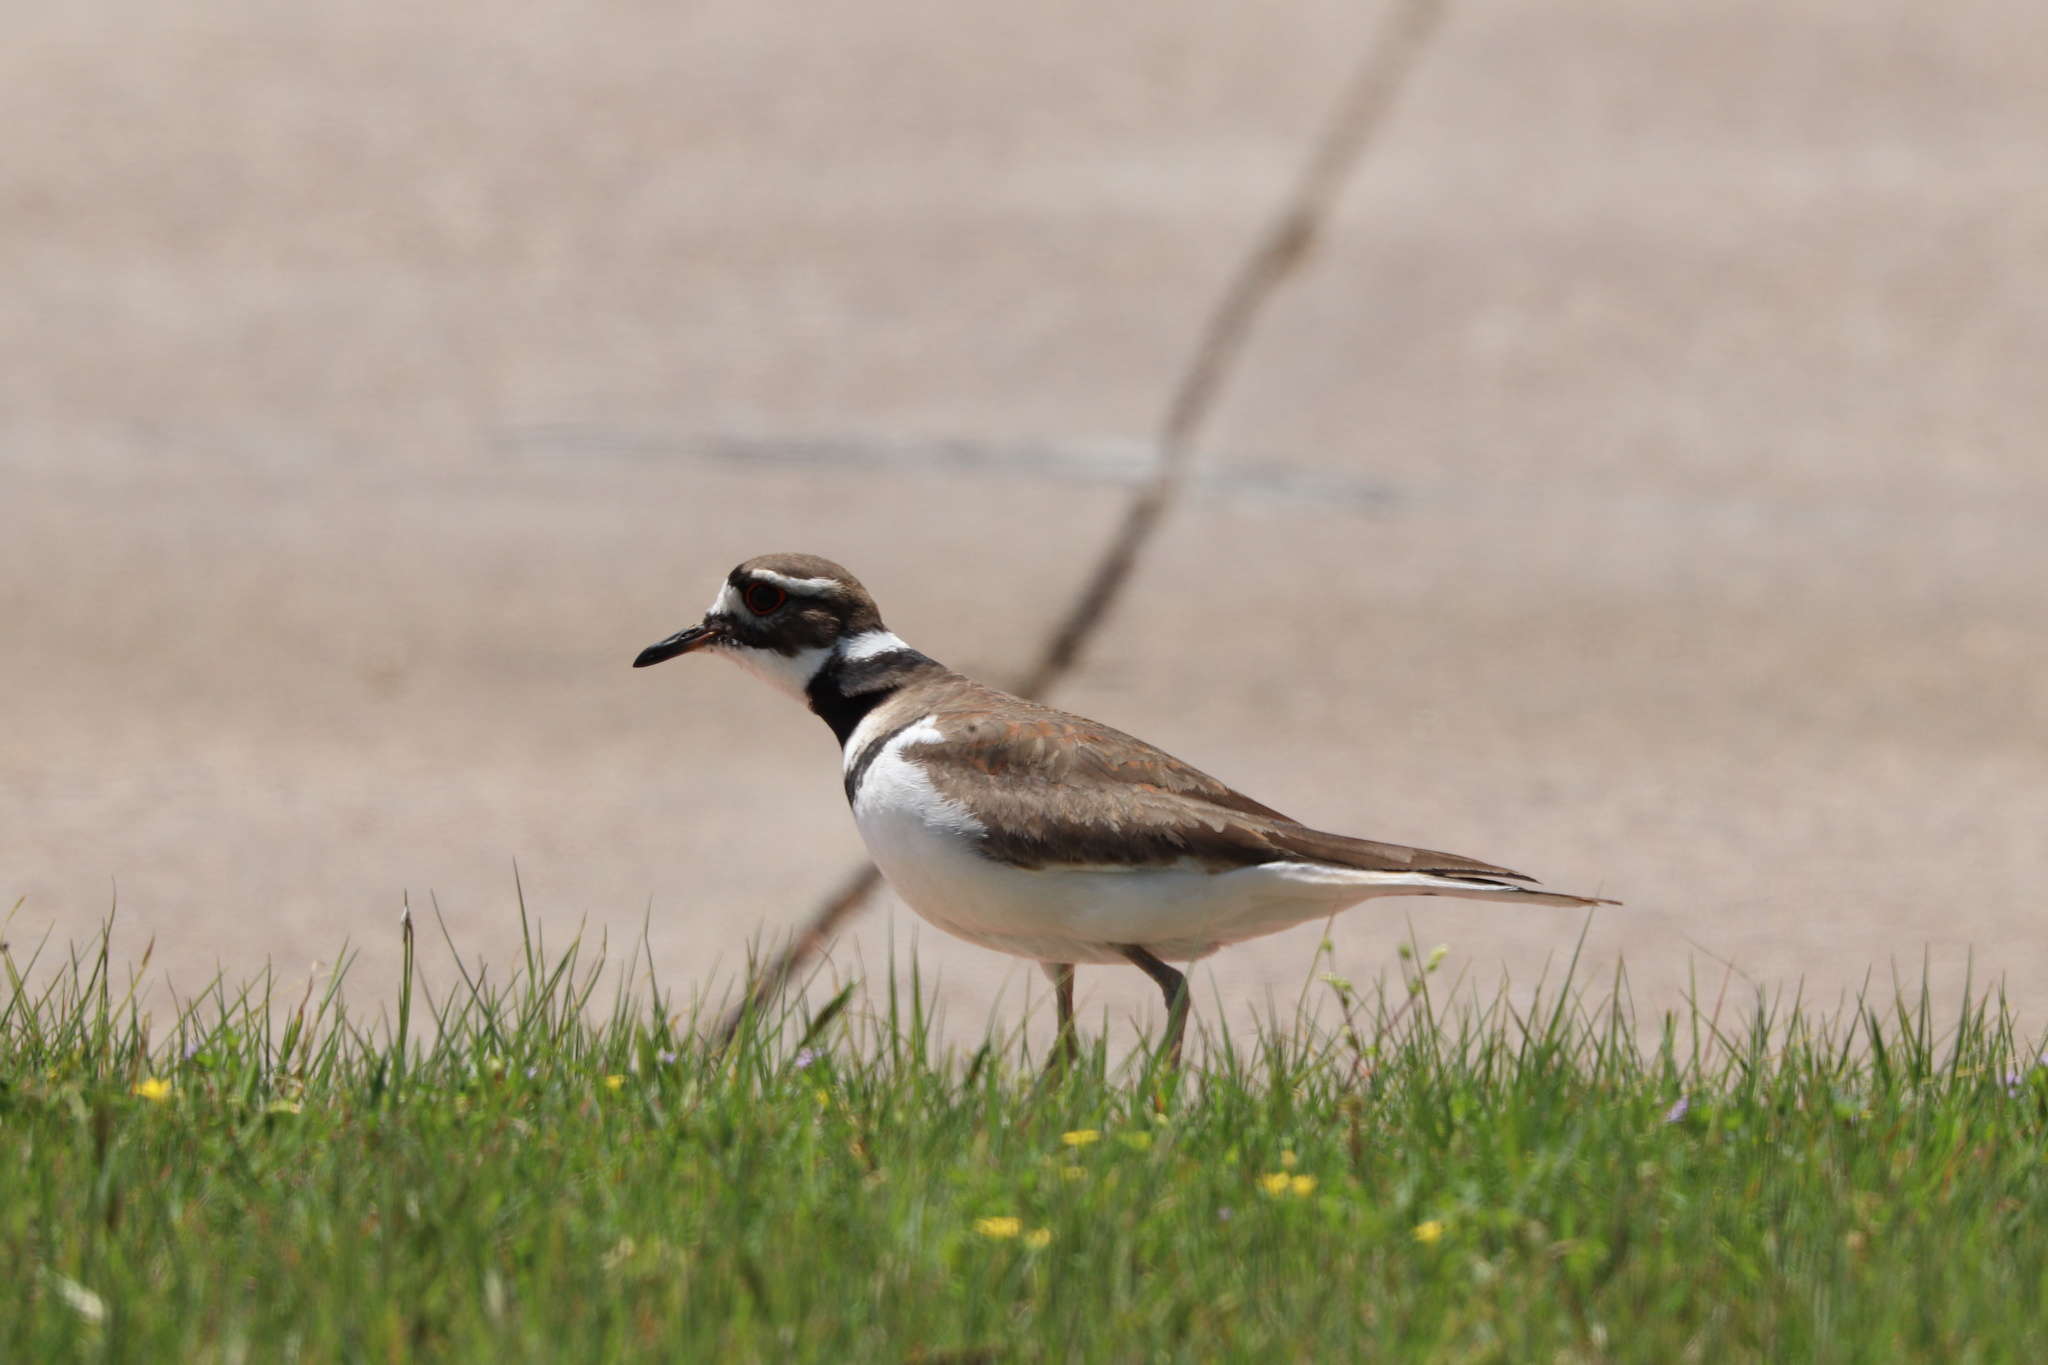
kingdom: Animalia
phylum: Chordata
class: Aves
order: Charadriiformes
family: Charadriidae
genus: Charadrius
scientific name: Charadrius vociferus
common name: Killdeer
